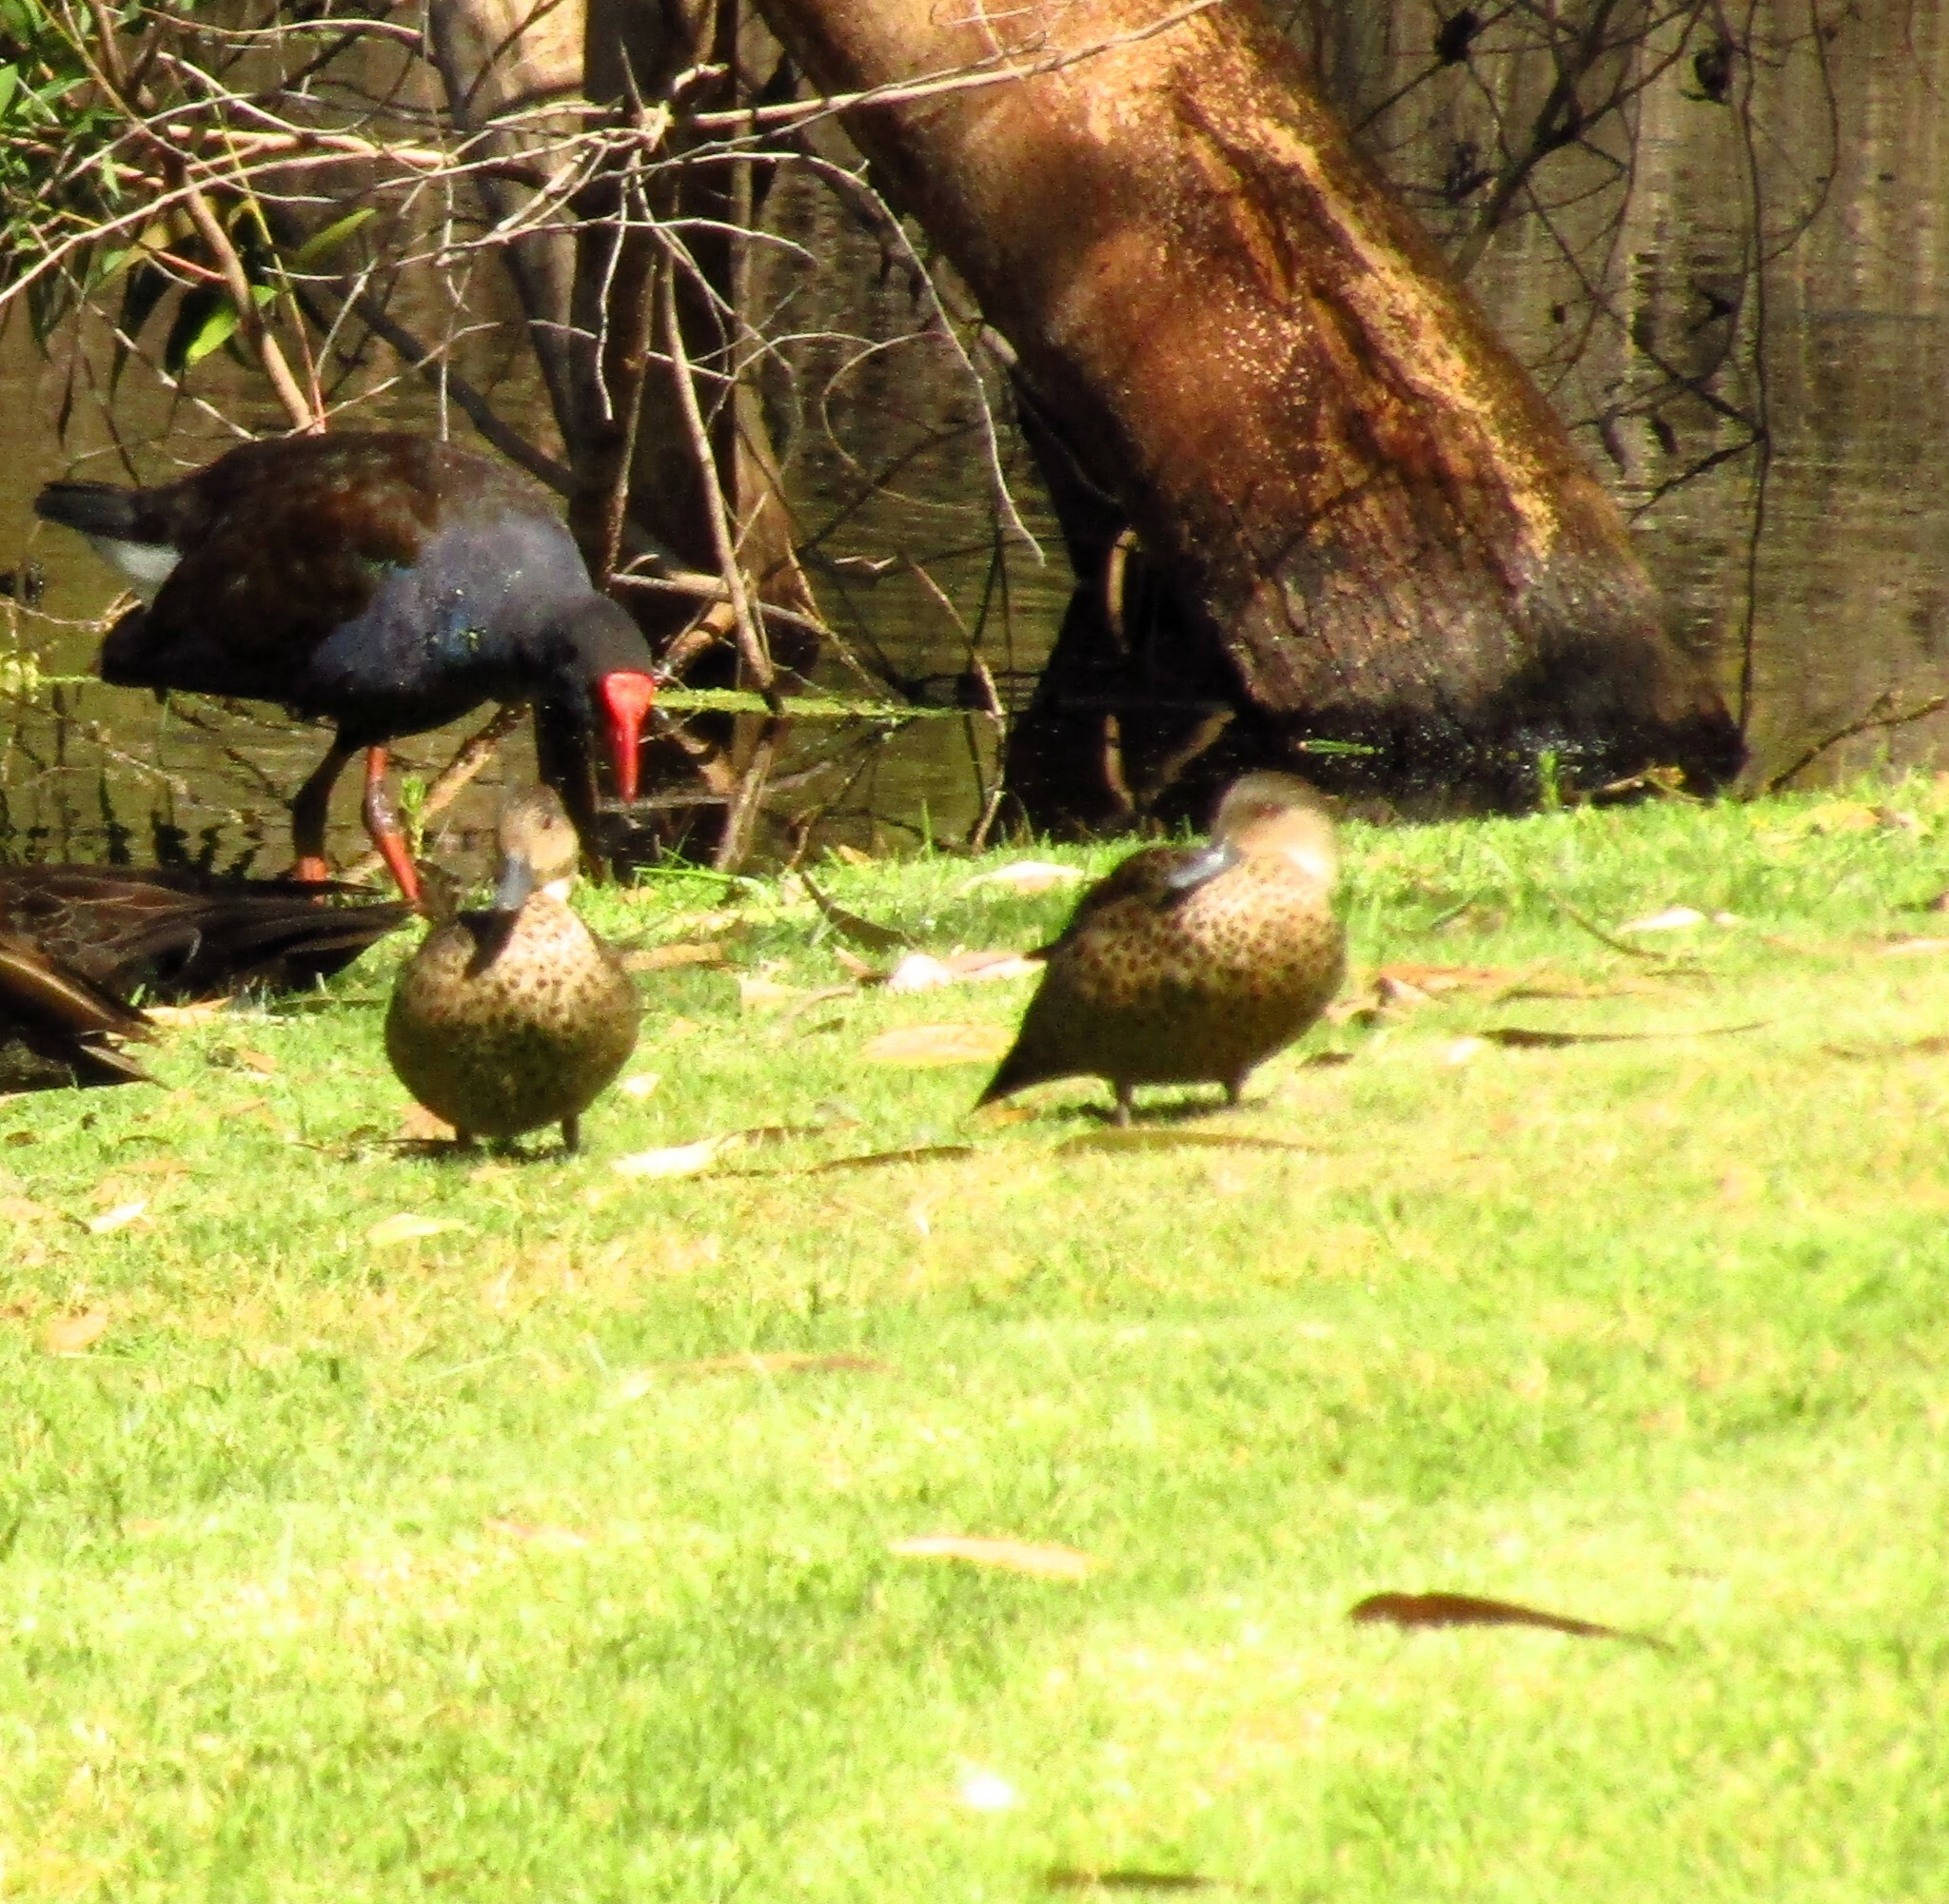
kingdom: Animalia
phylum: Chordata
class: Aves
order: Anseriformes
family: Anatidae
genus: Anas
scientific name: Anas castanea
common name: Chestnut teal
